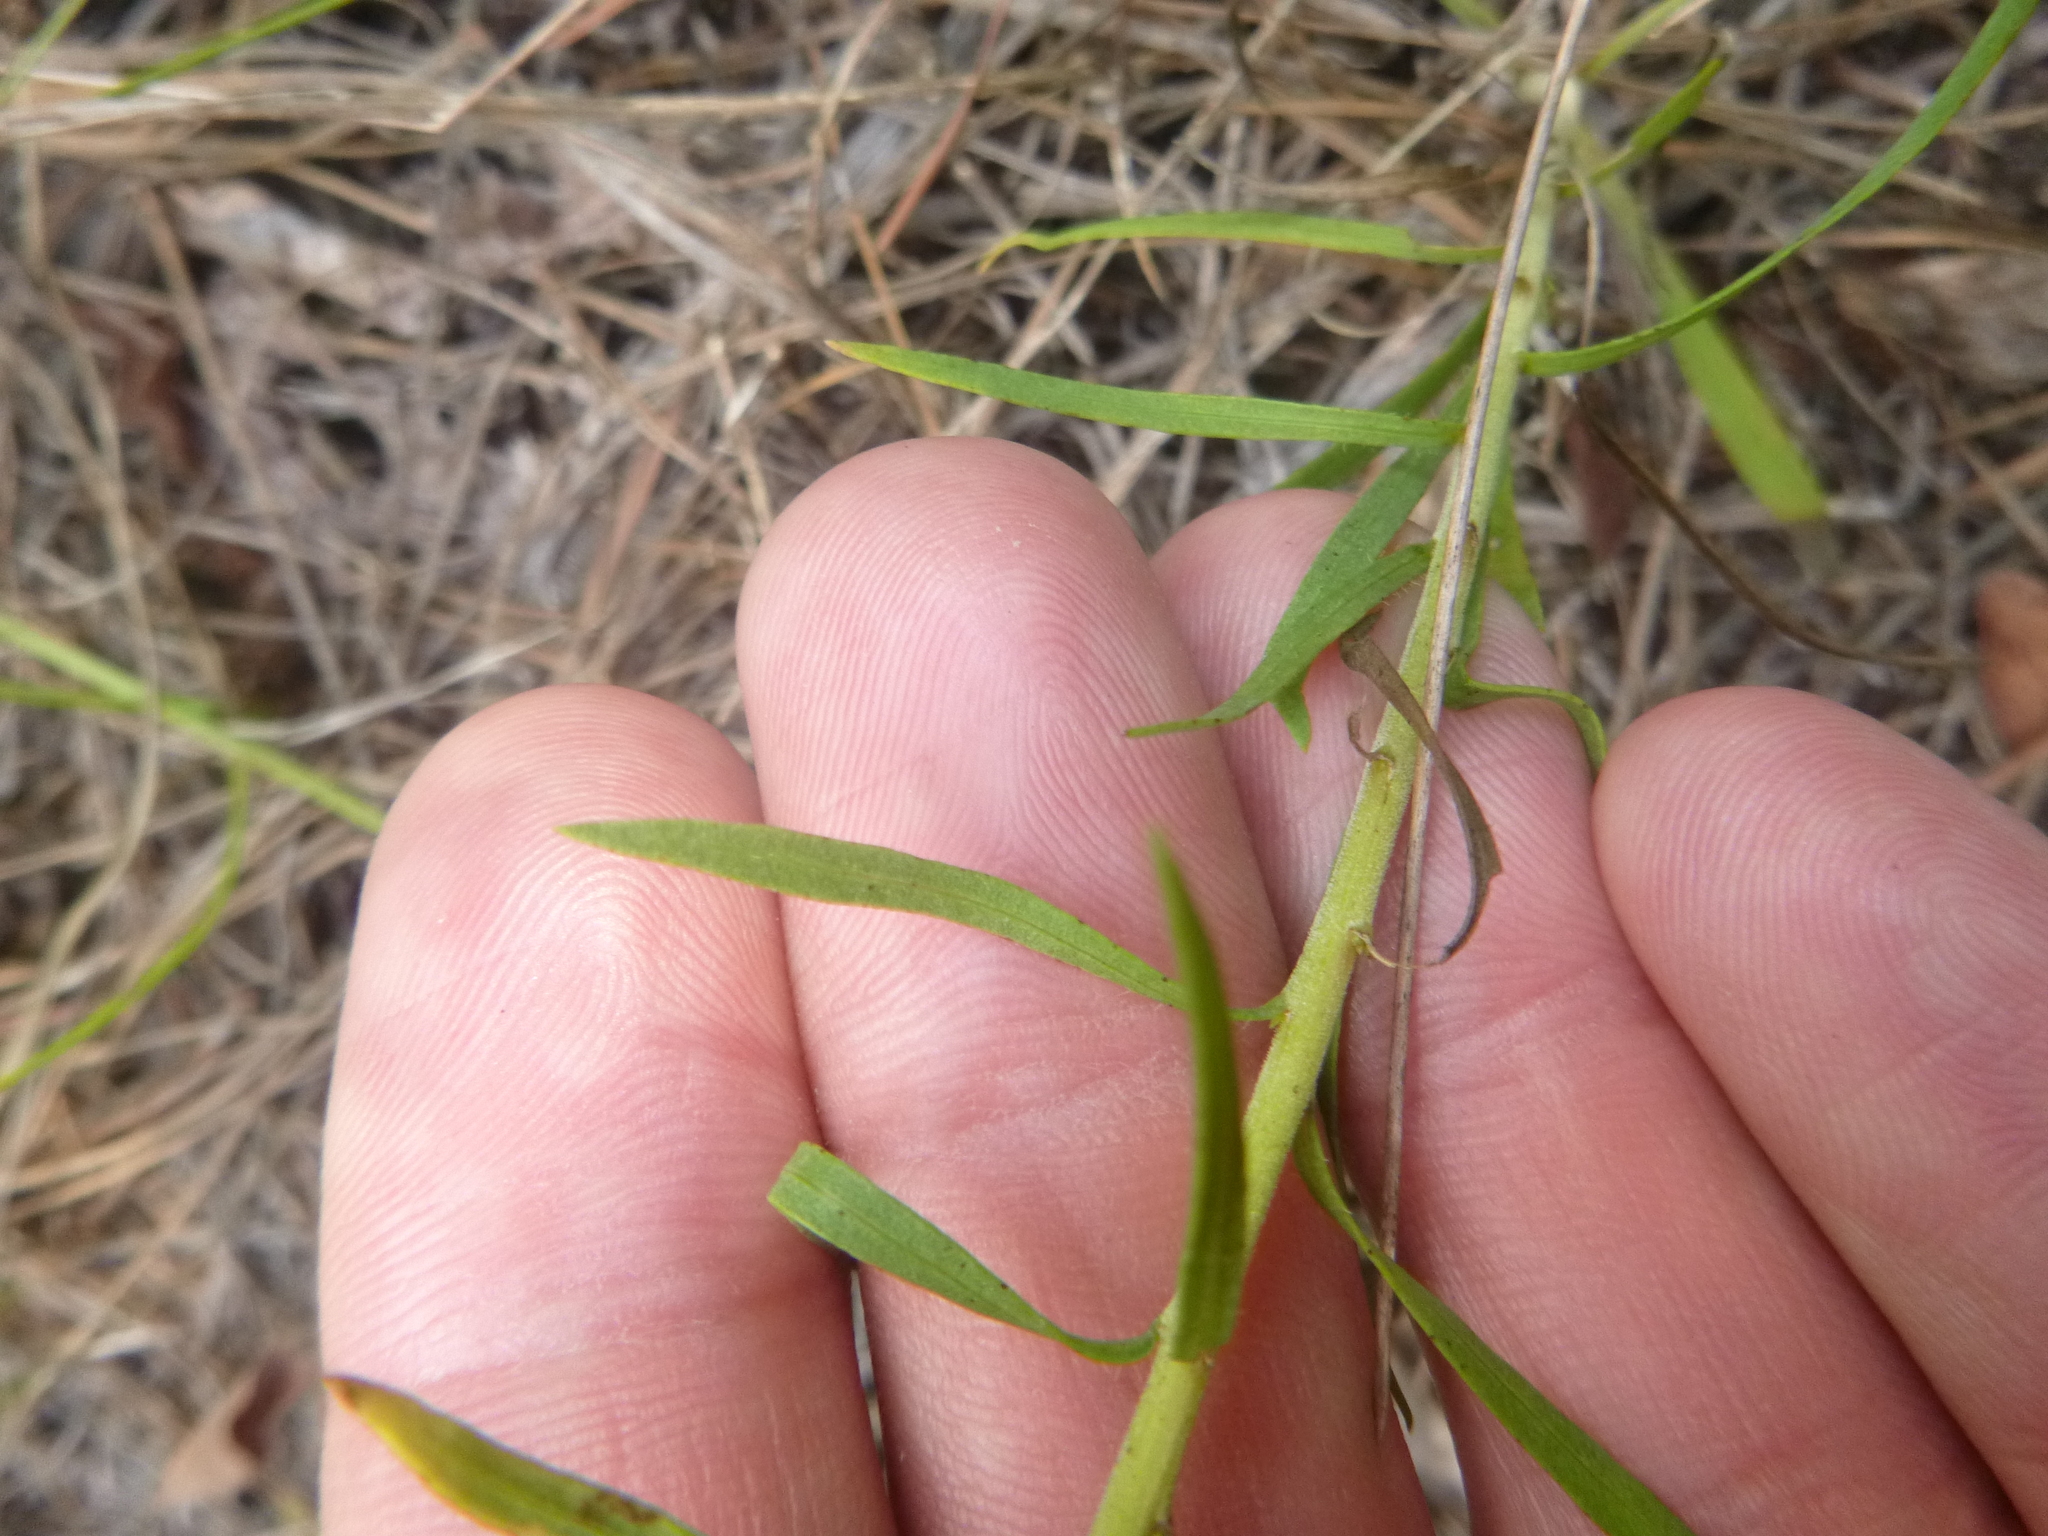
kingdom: Plantae
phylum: Tracheophyta
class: Magnoliopsida
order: Asterales
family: Asteraceae
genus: Liatris
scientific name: Liatris pauciflora
